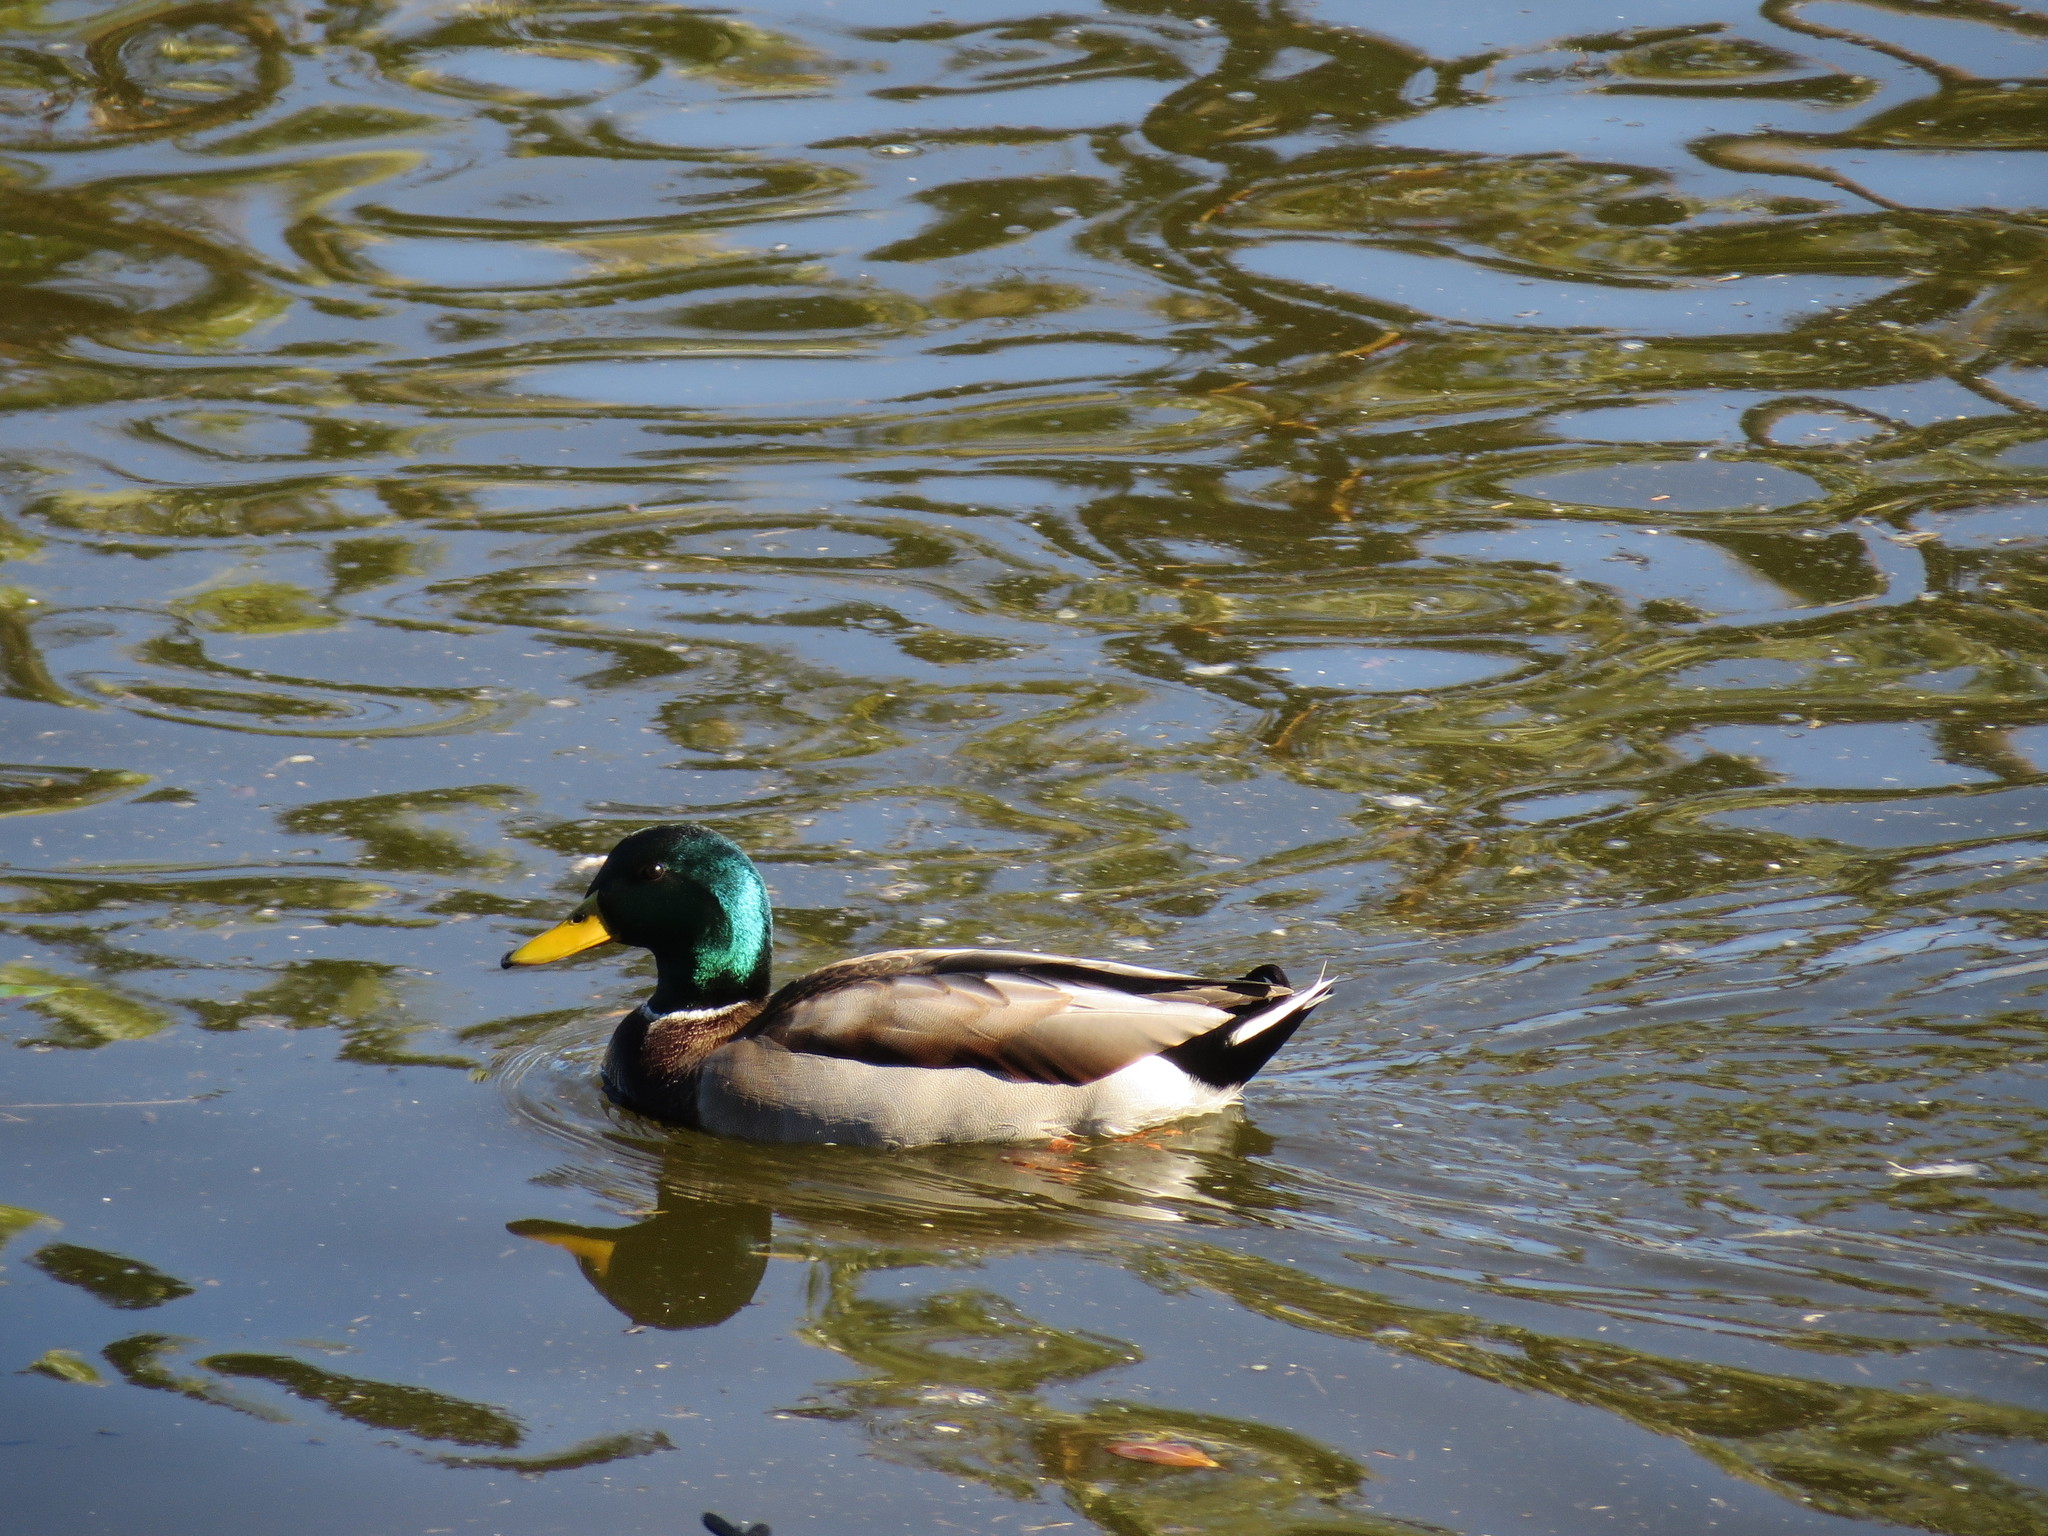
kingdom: Animalia
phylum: Chordata
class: Aves
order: Anseriformes
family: Anatidae
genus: Anas
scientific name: Anas platyrhynchos
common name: Mallard
